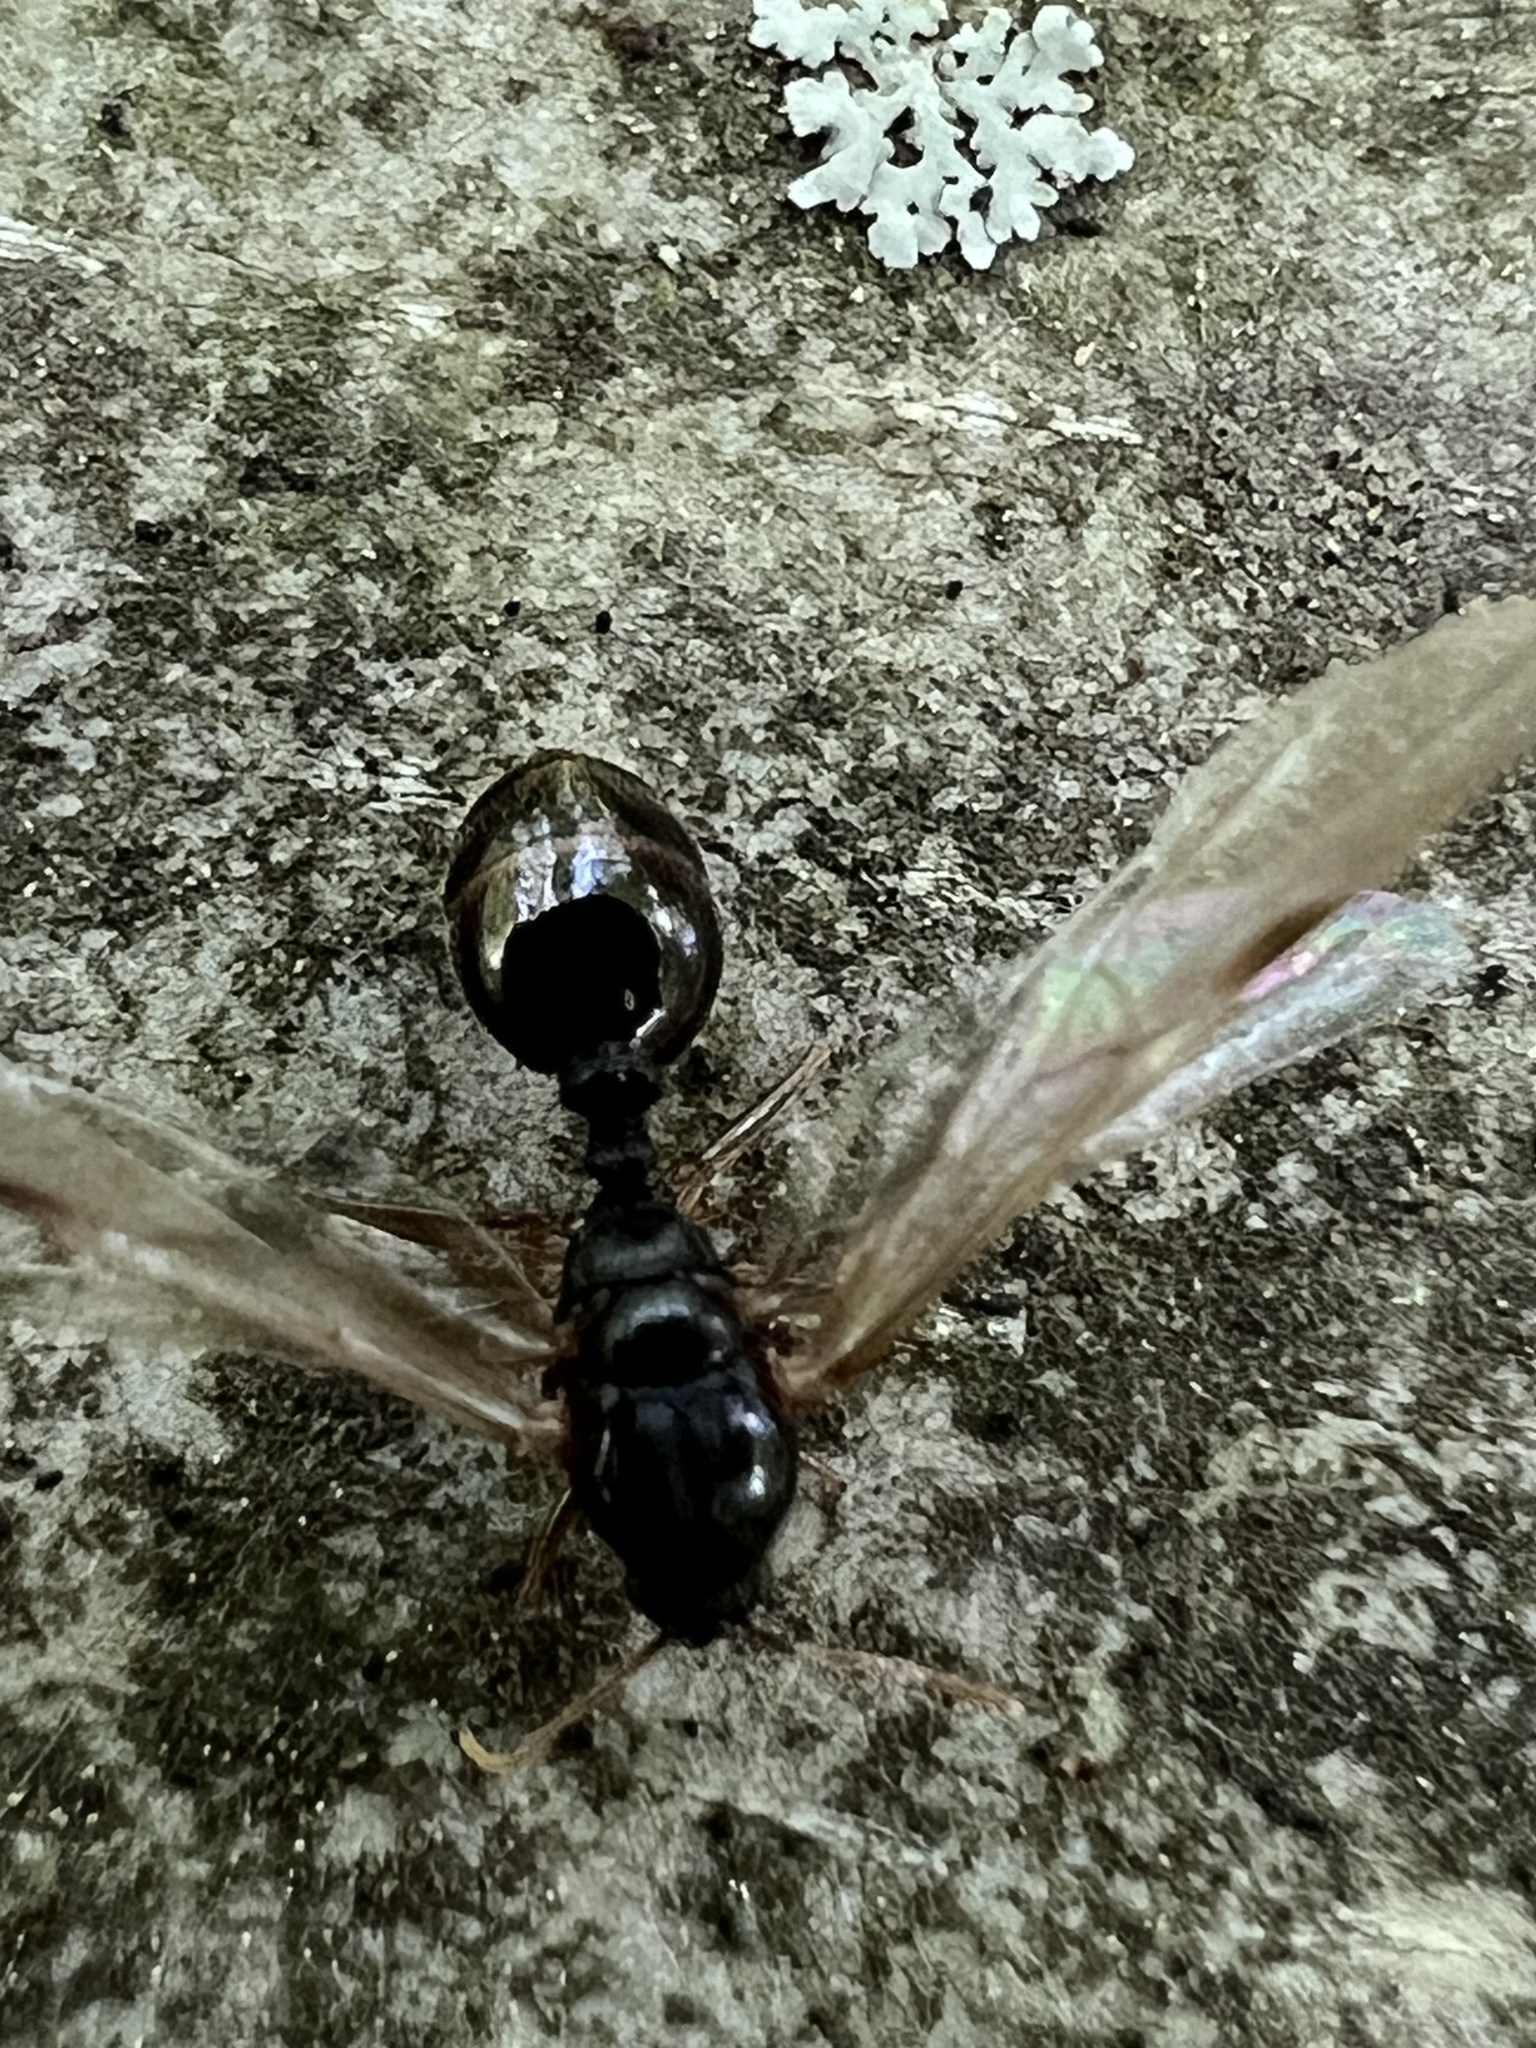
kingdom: Animalia
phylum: Arthropoda
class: Insecta
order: Hymenoptera
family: Formicidae
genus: Tetramorium
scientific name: Tetramorium immigrans
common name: Pavement ant
